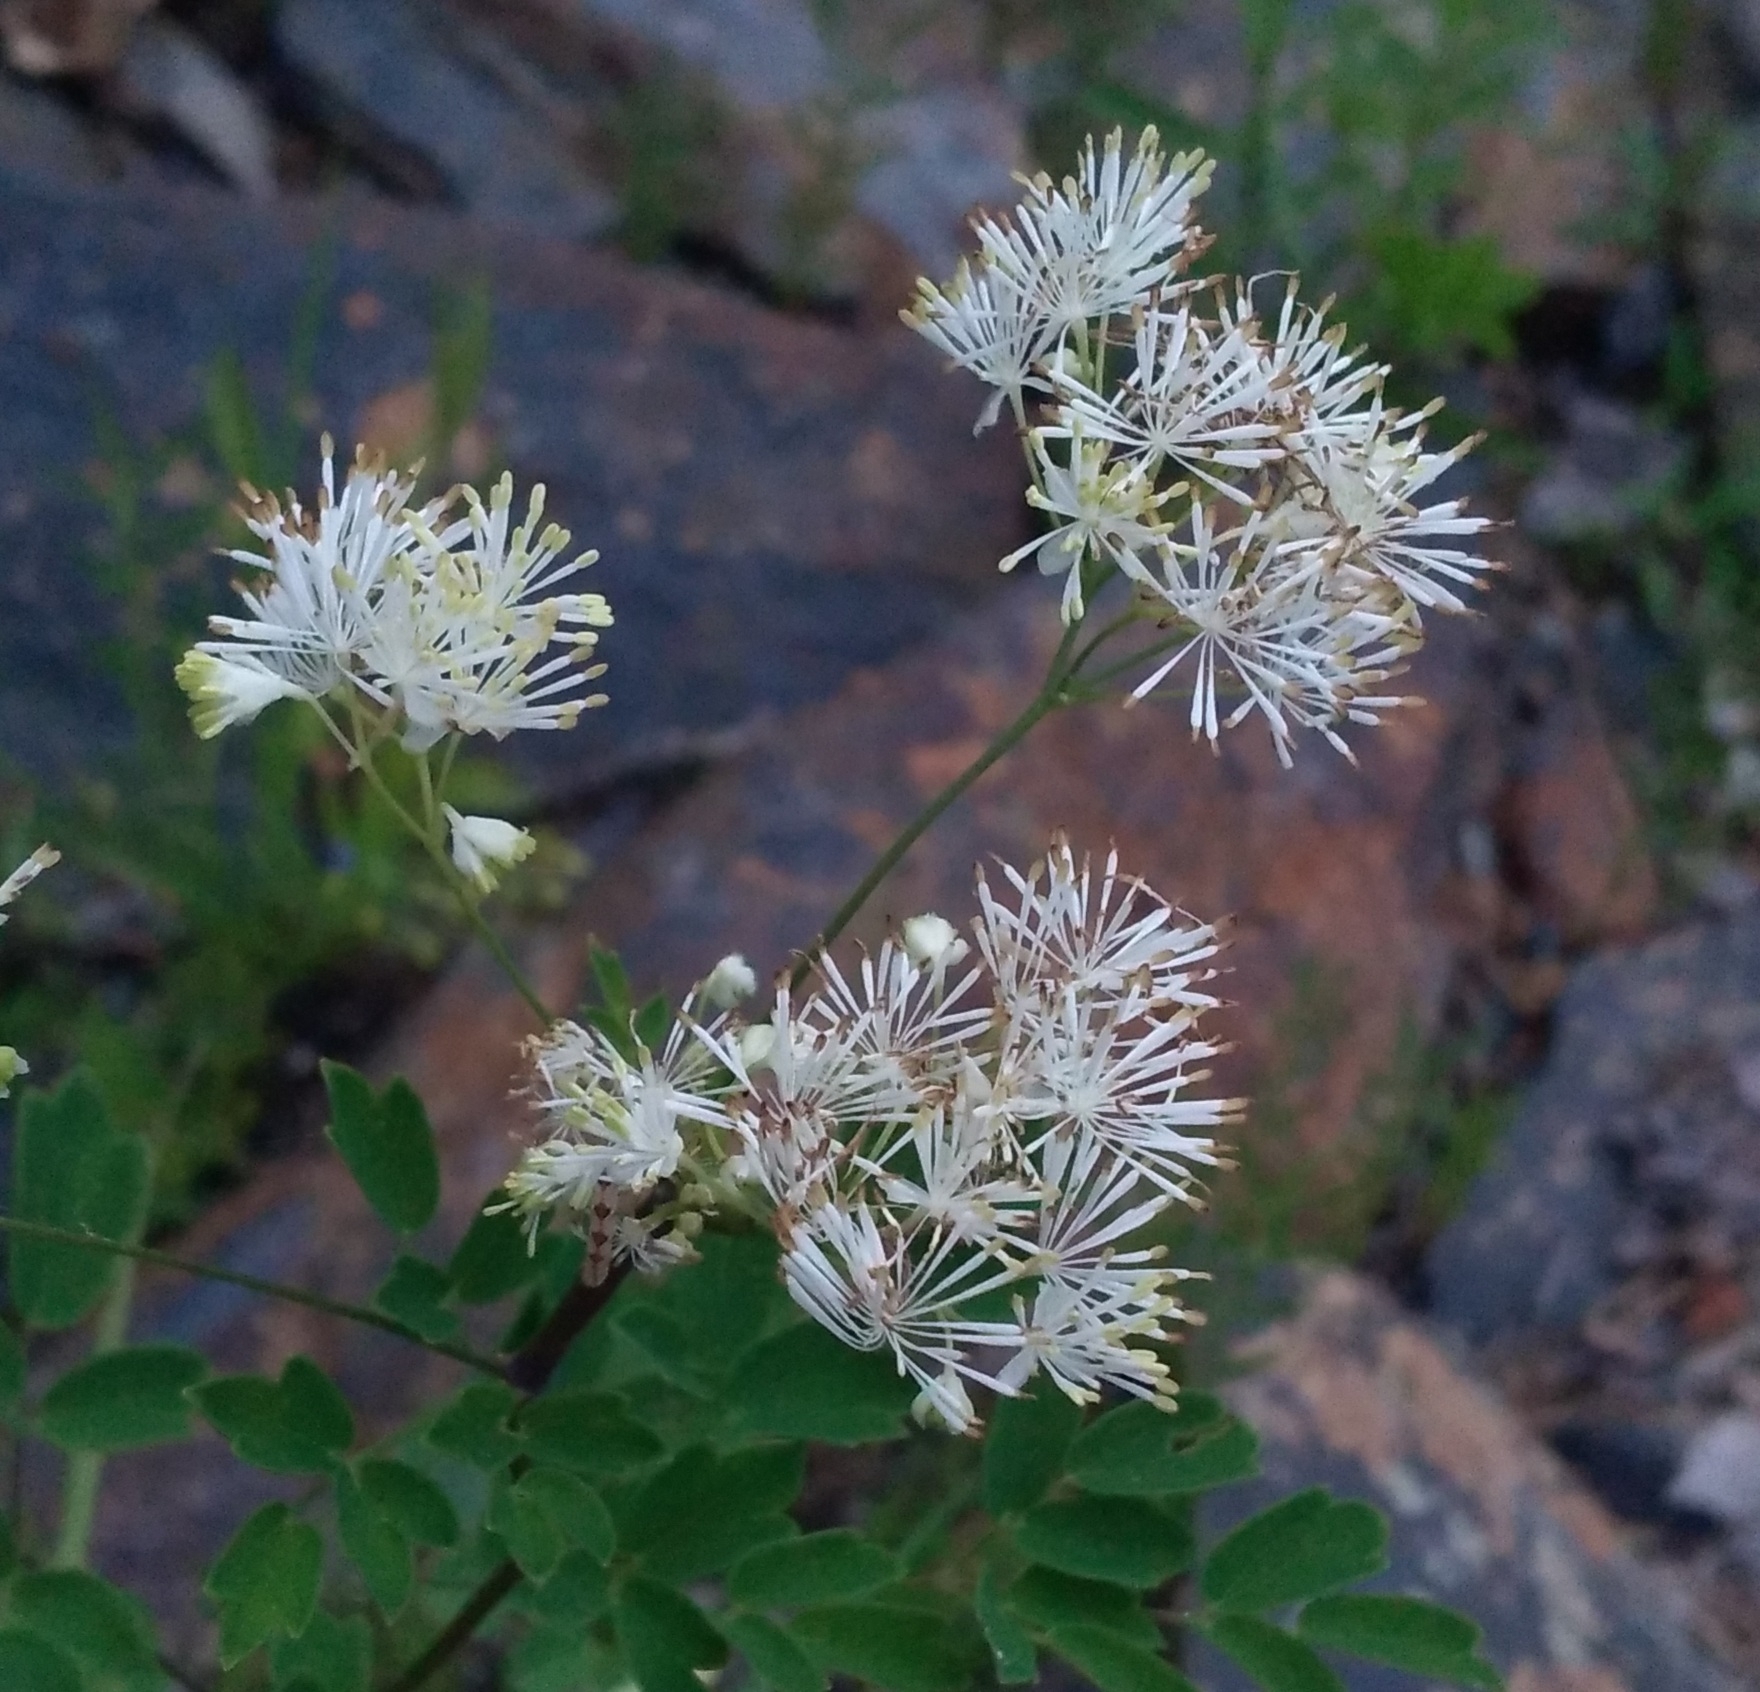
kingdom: Plantae
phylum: Tracheophyta
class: Magnoliopsida
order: Ranunculales
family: Ranunculaceae
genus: Thalictrum
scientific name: Thalictrum pubescens
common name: King-of-the-meadow
